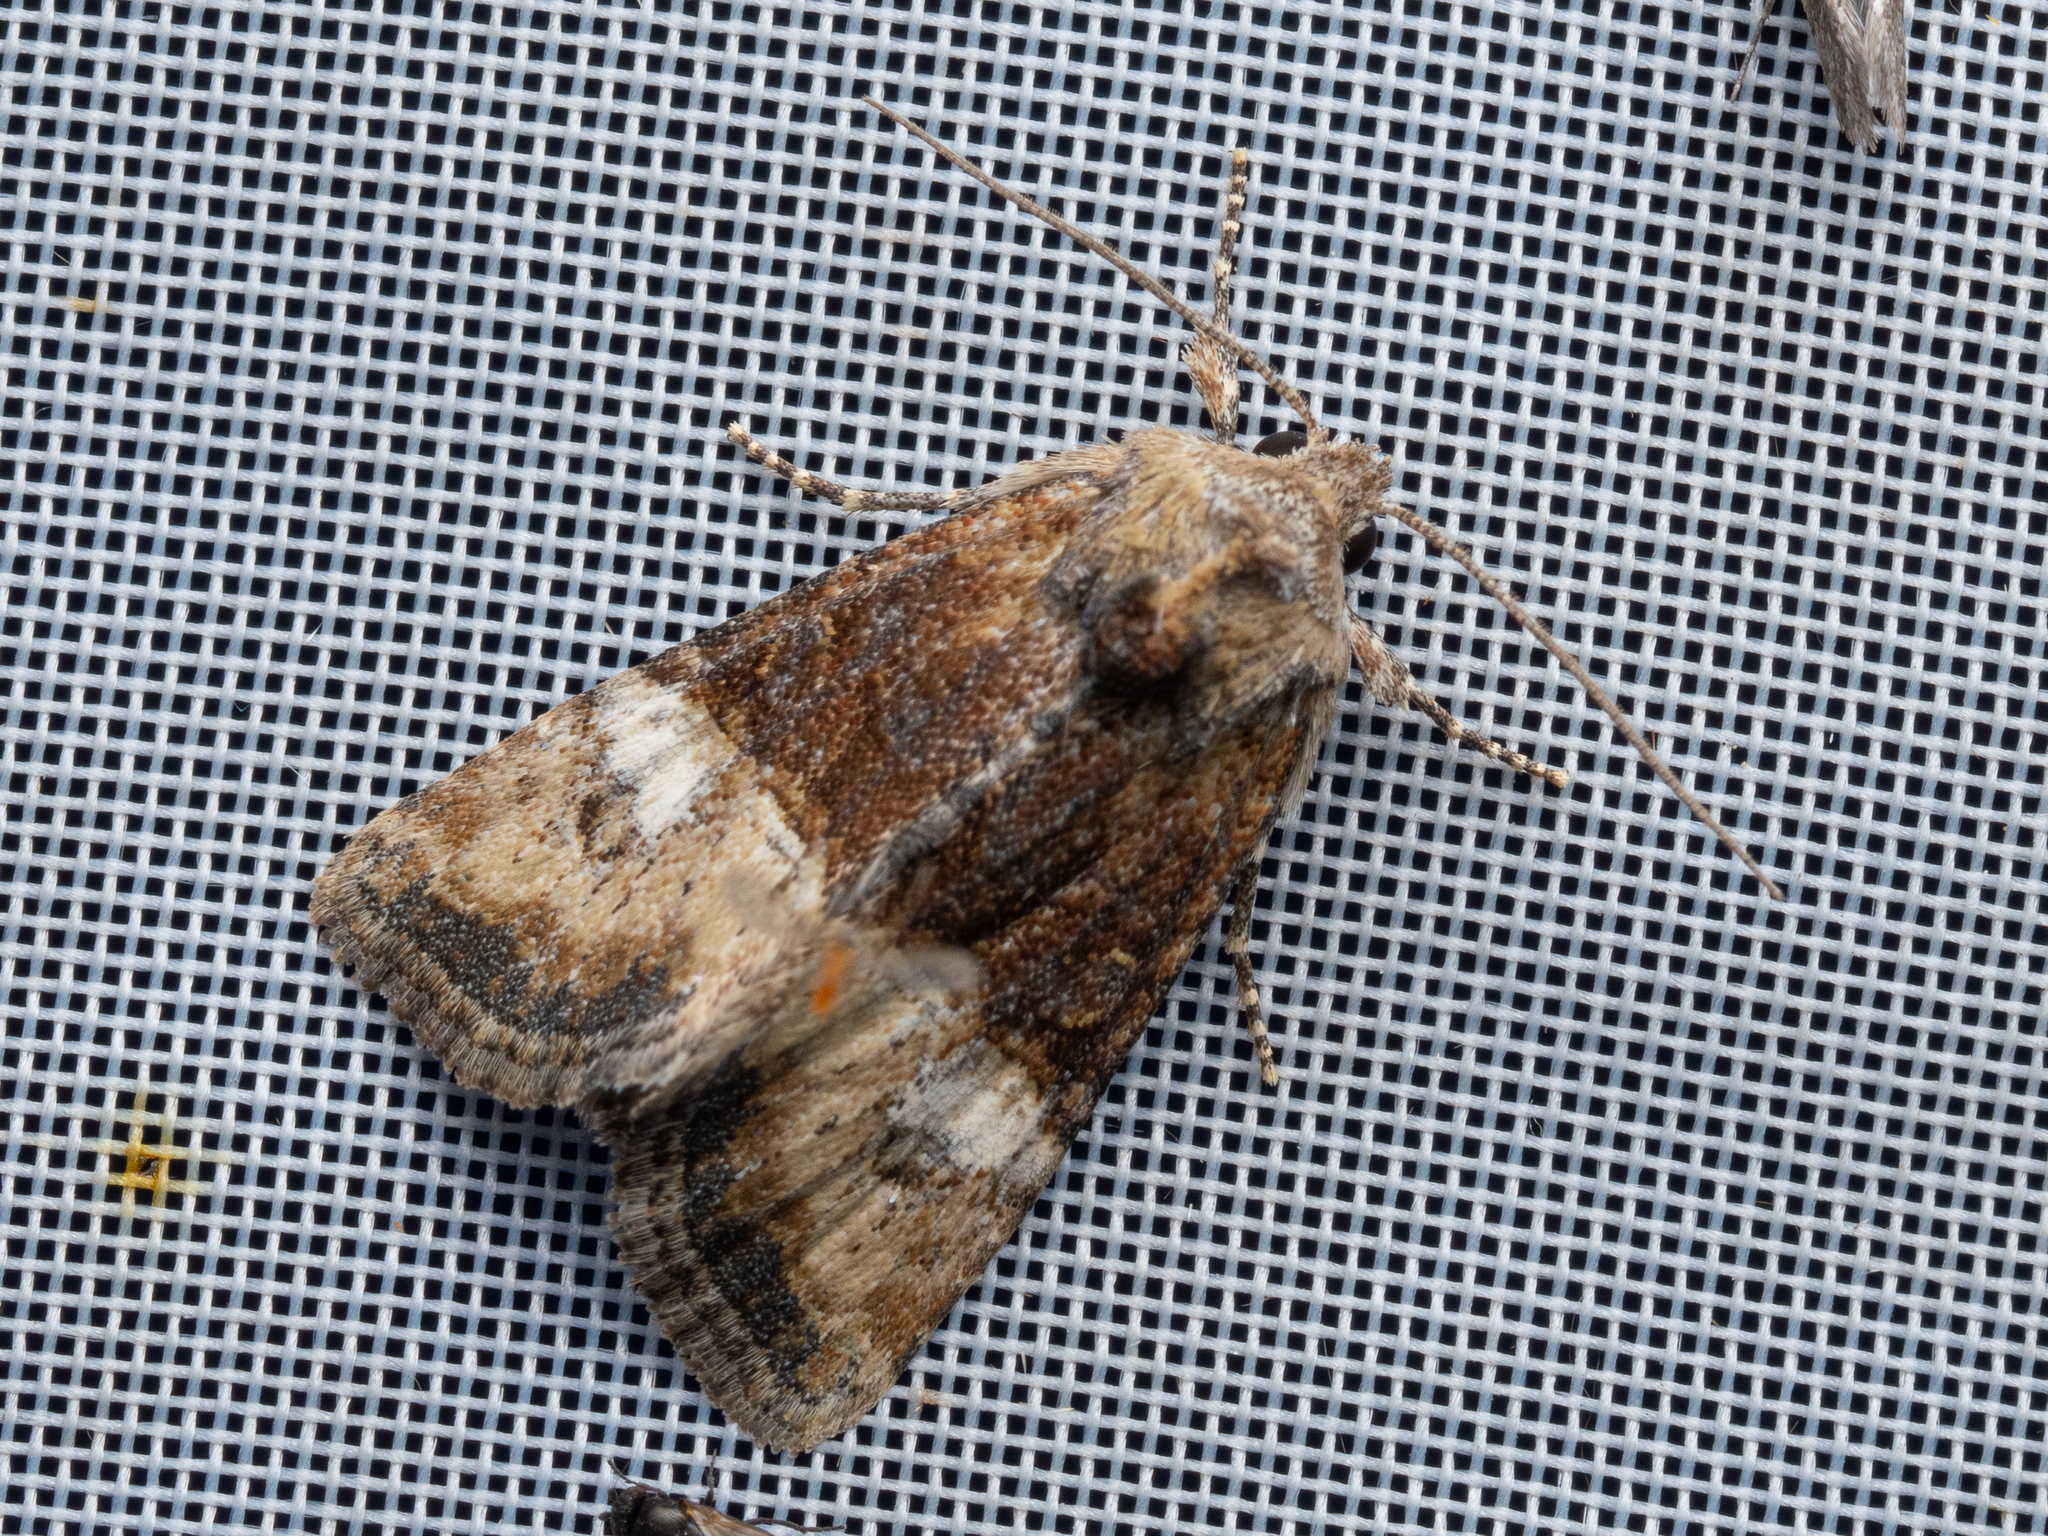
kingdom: Animalia
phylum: Arthropoda
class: Insecta
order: Lepidoptera
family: Noctuidae
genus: Mesoligia
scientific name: Mesoligia furuncula
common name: Cloaked minor
